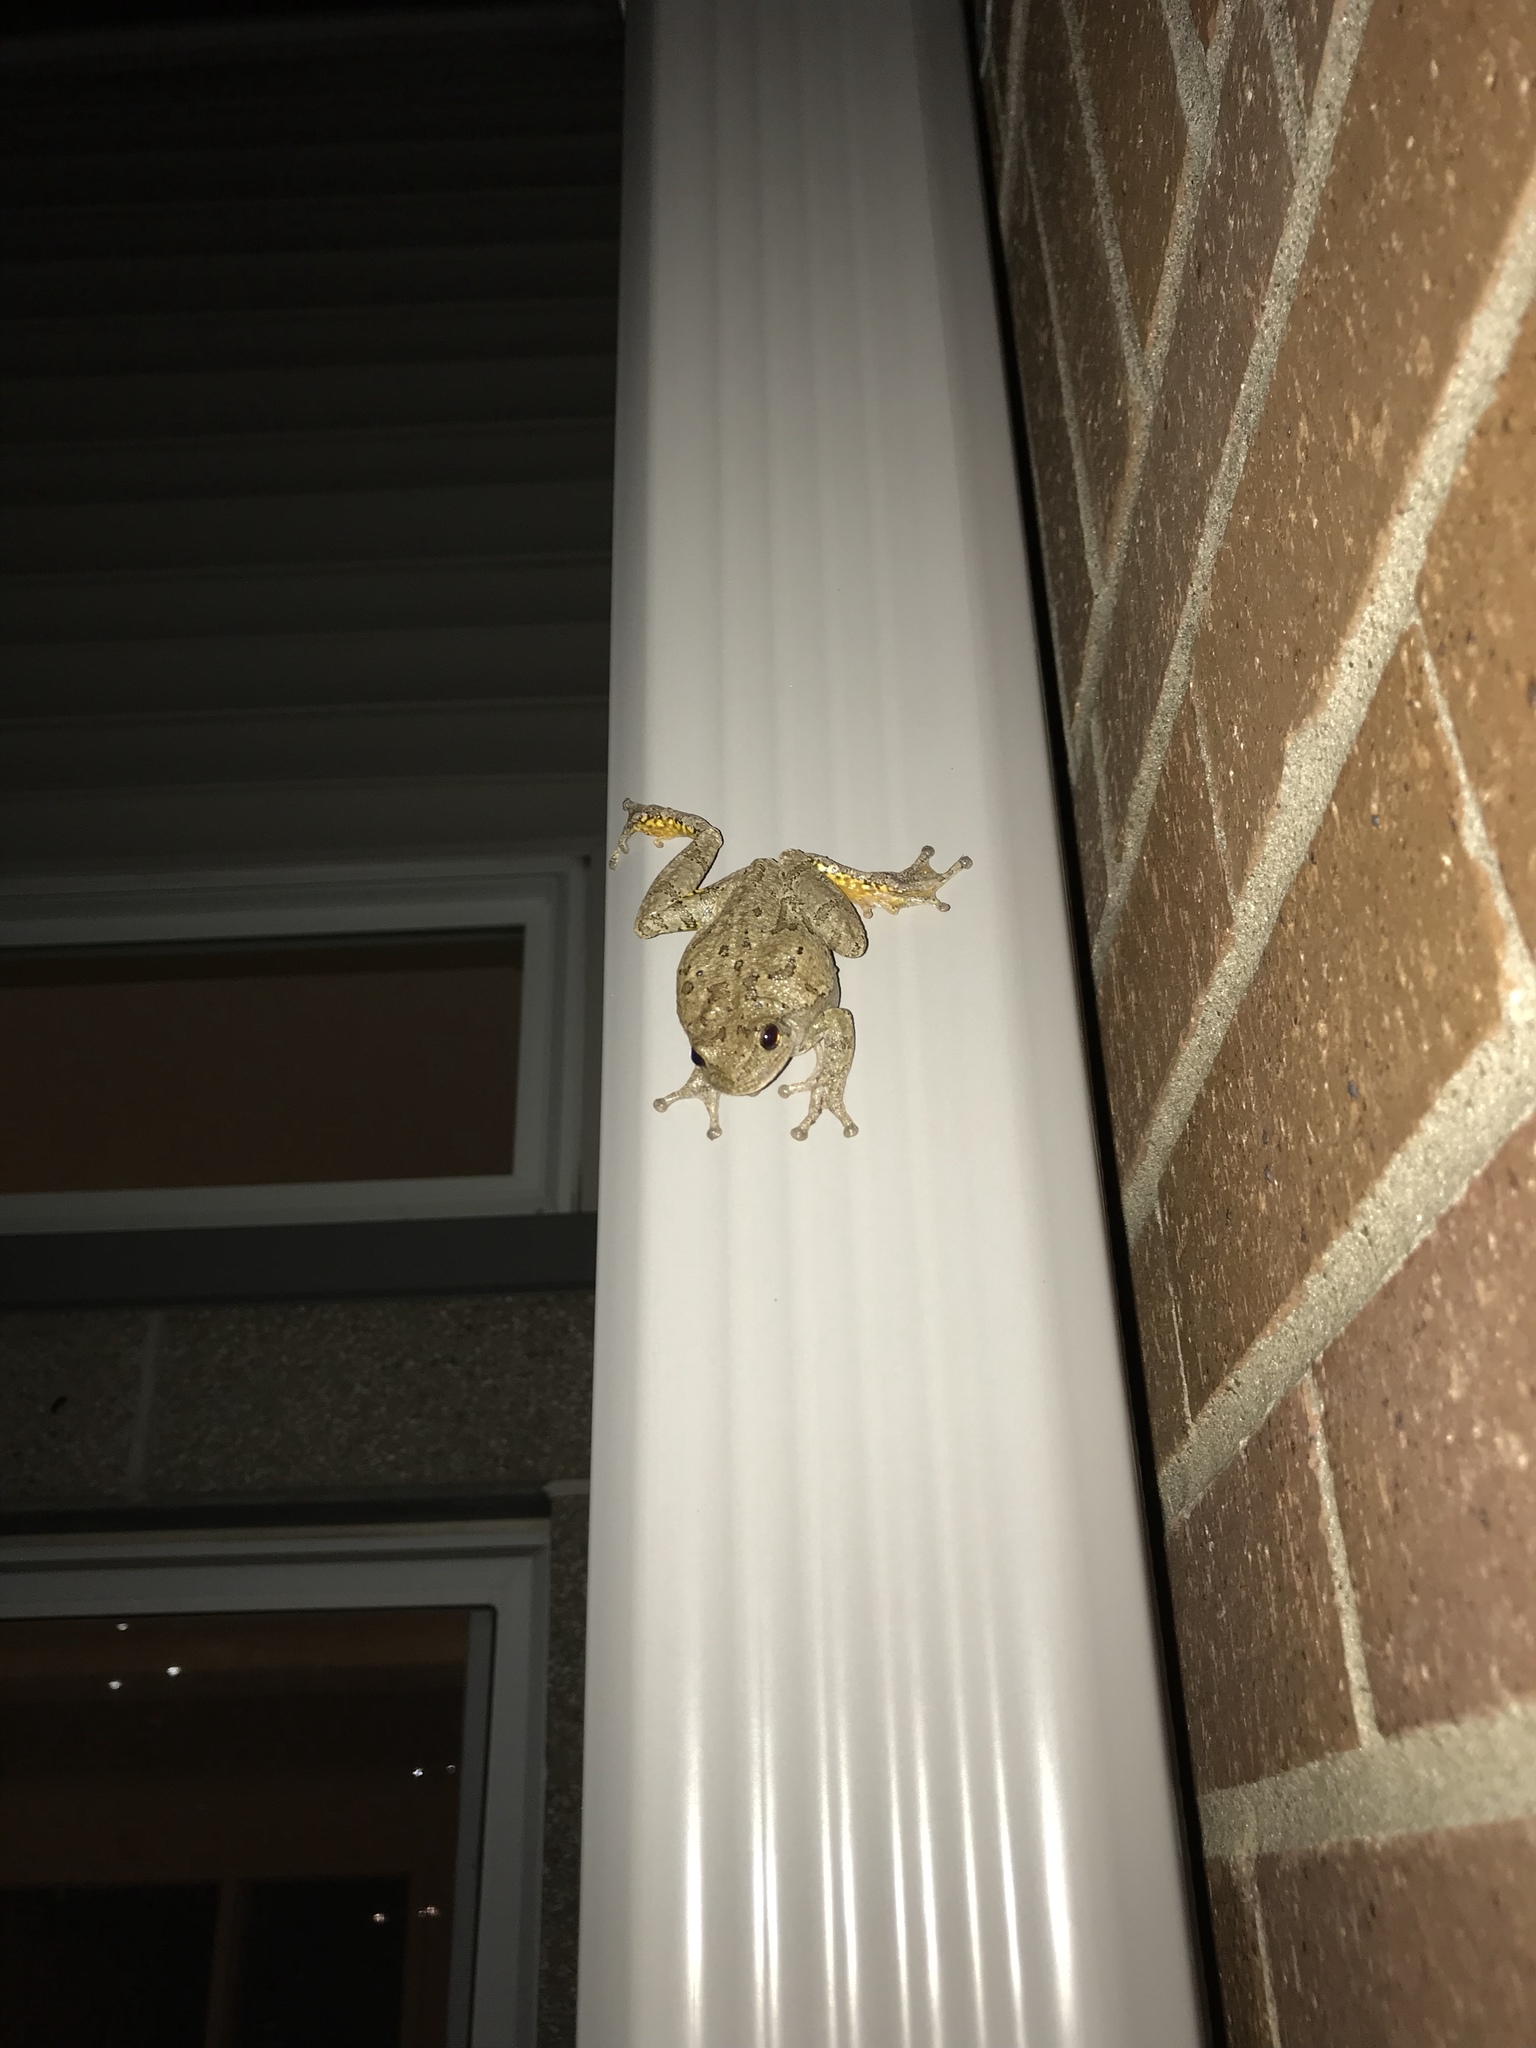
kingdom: Animalia
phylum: Chordata
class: Amphibia
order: Anura
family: Hylidae
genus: Hyla
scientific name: Hyla
